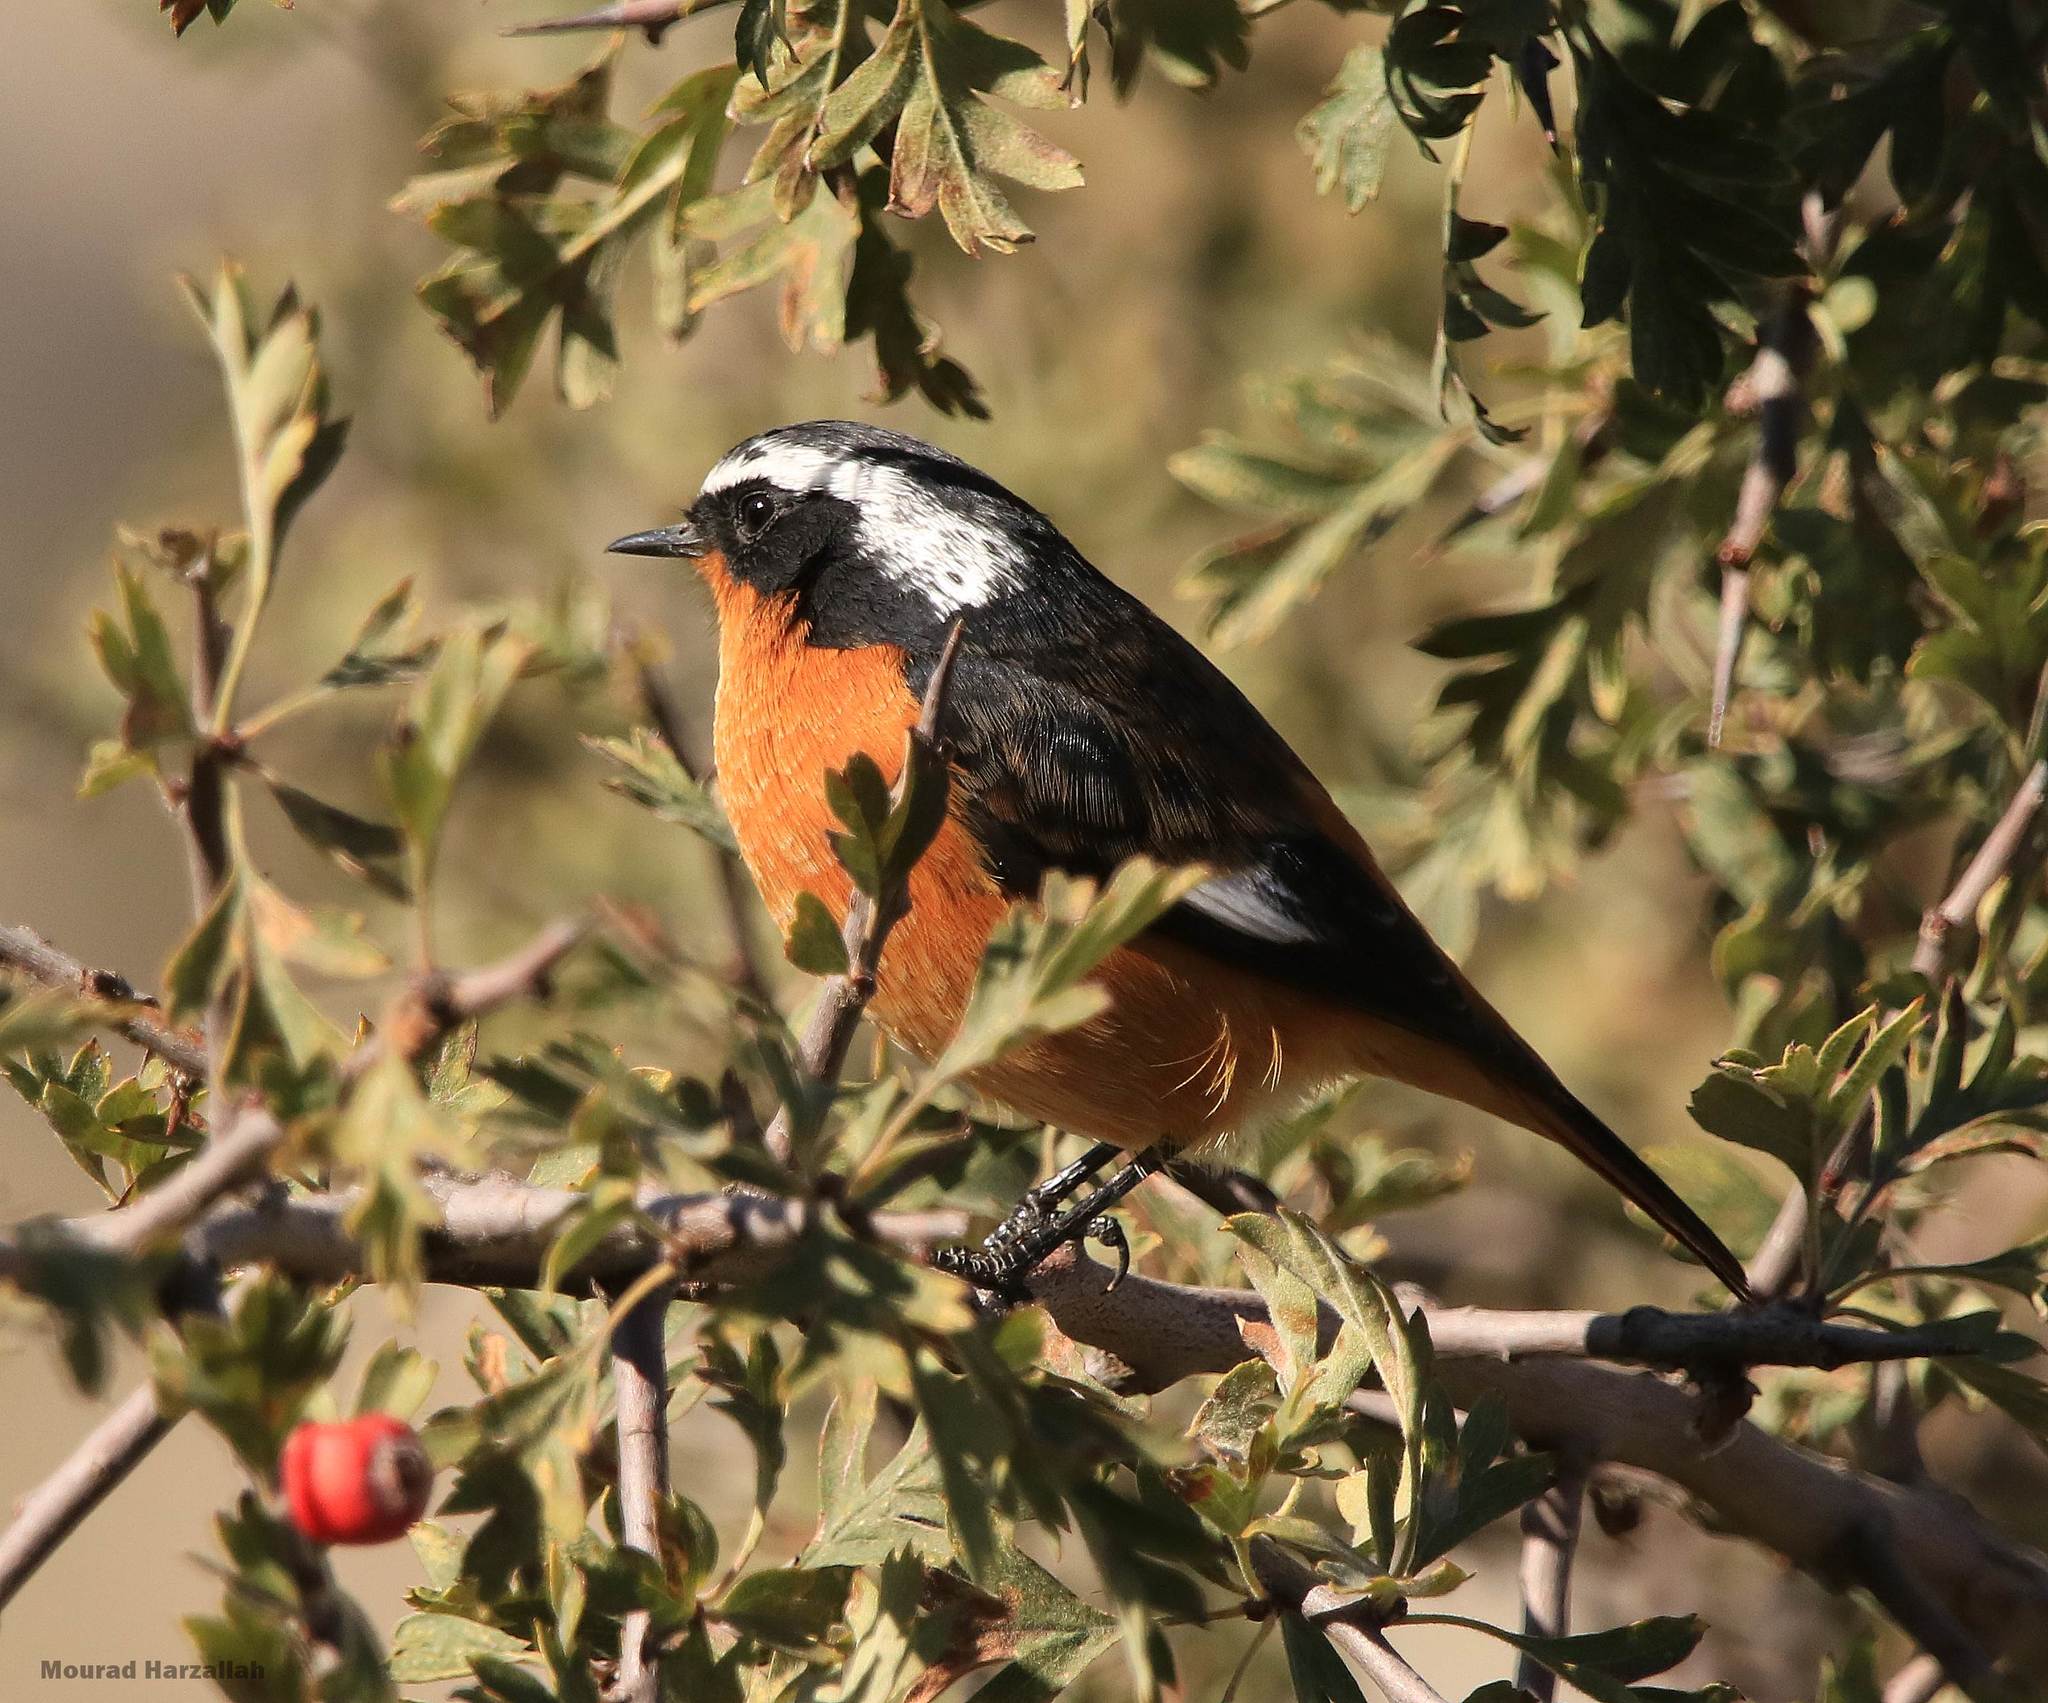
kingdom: Animalia
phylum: Chordata
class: Aves
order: Passeriformes
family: Muscicapidae
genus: Phoenicurus
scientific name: Phoenicurus moussieri
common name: Moussier's redstart
